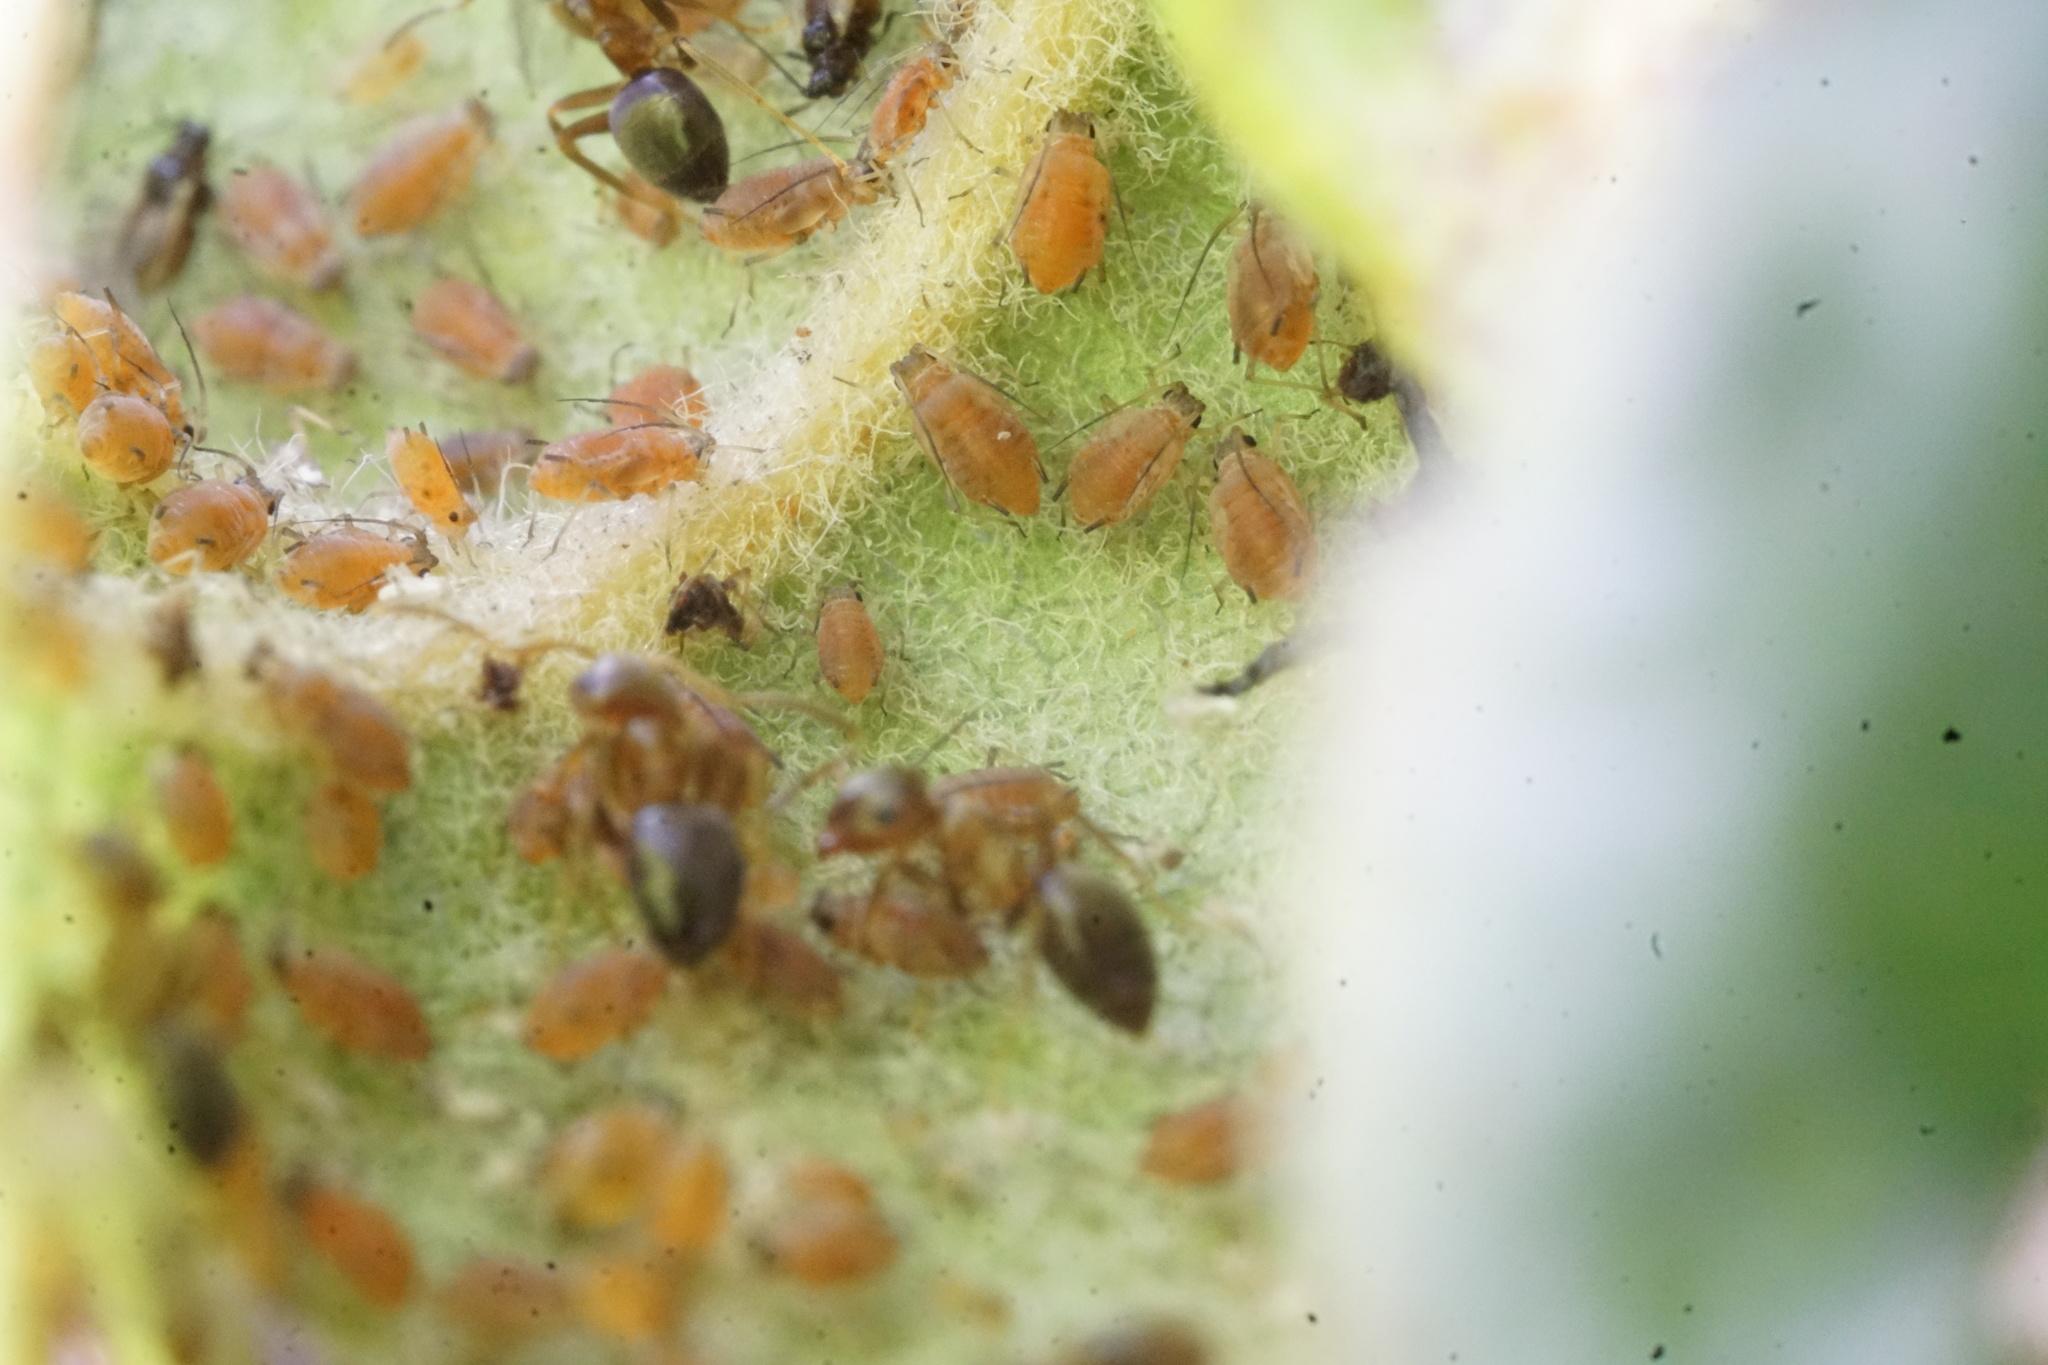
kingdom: Animalia
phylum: Arthropoda
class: Insecta
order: Hymenoptera
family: Formicidae
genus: Lasius
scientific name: Lasius brunneus
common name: Brown ant
